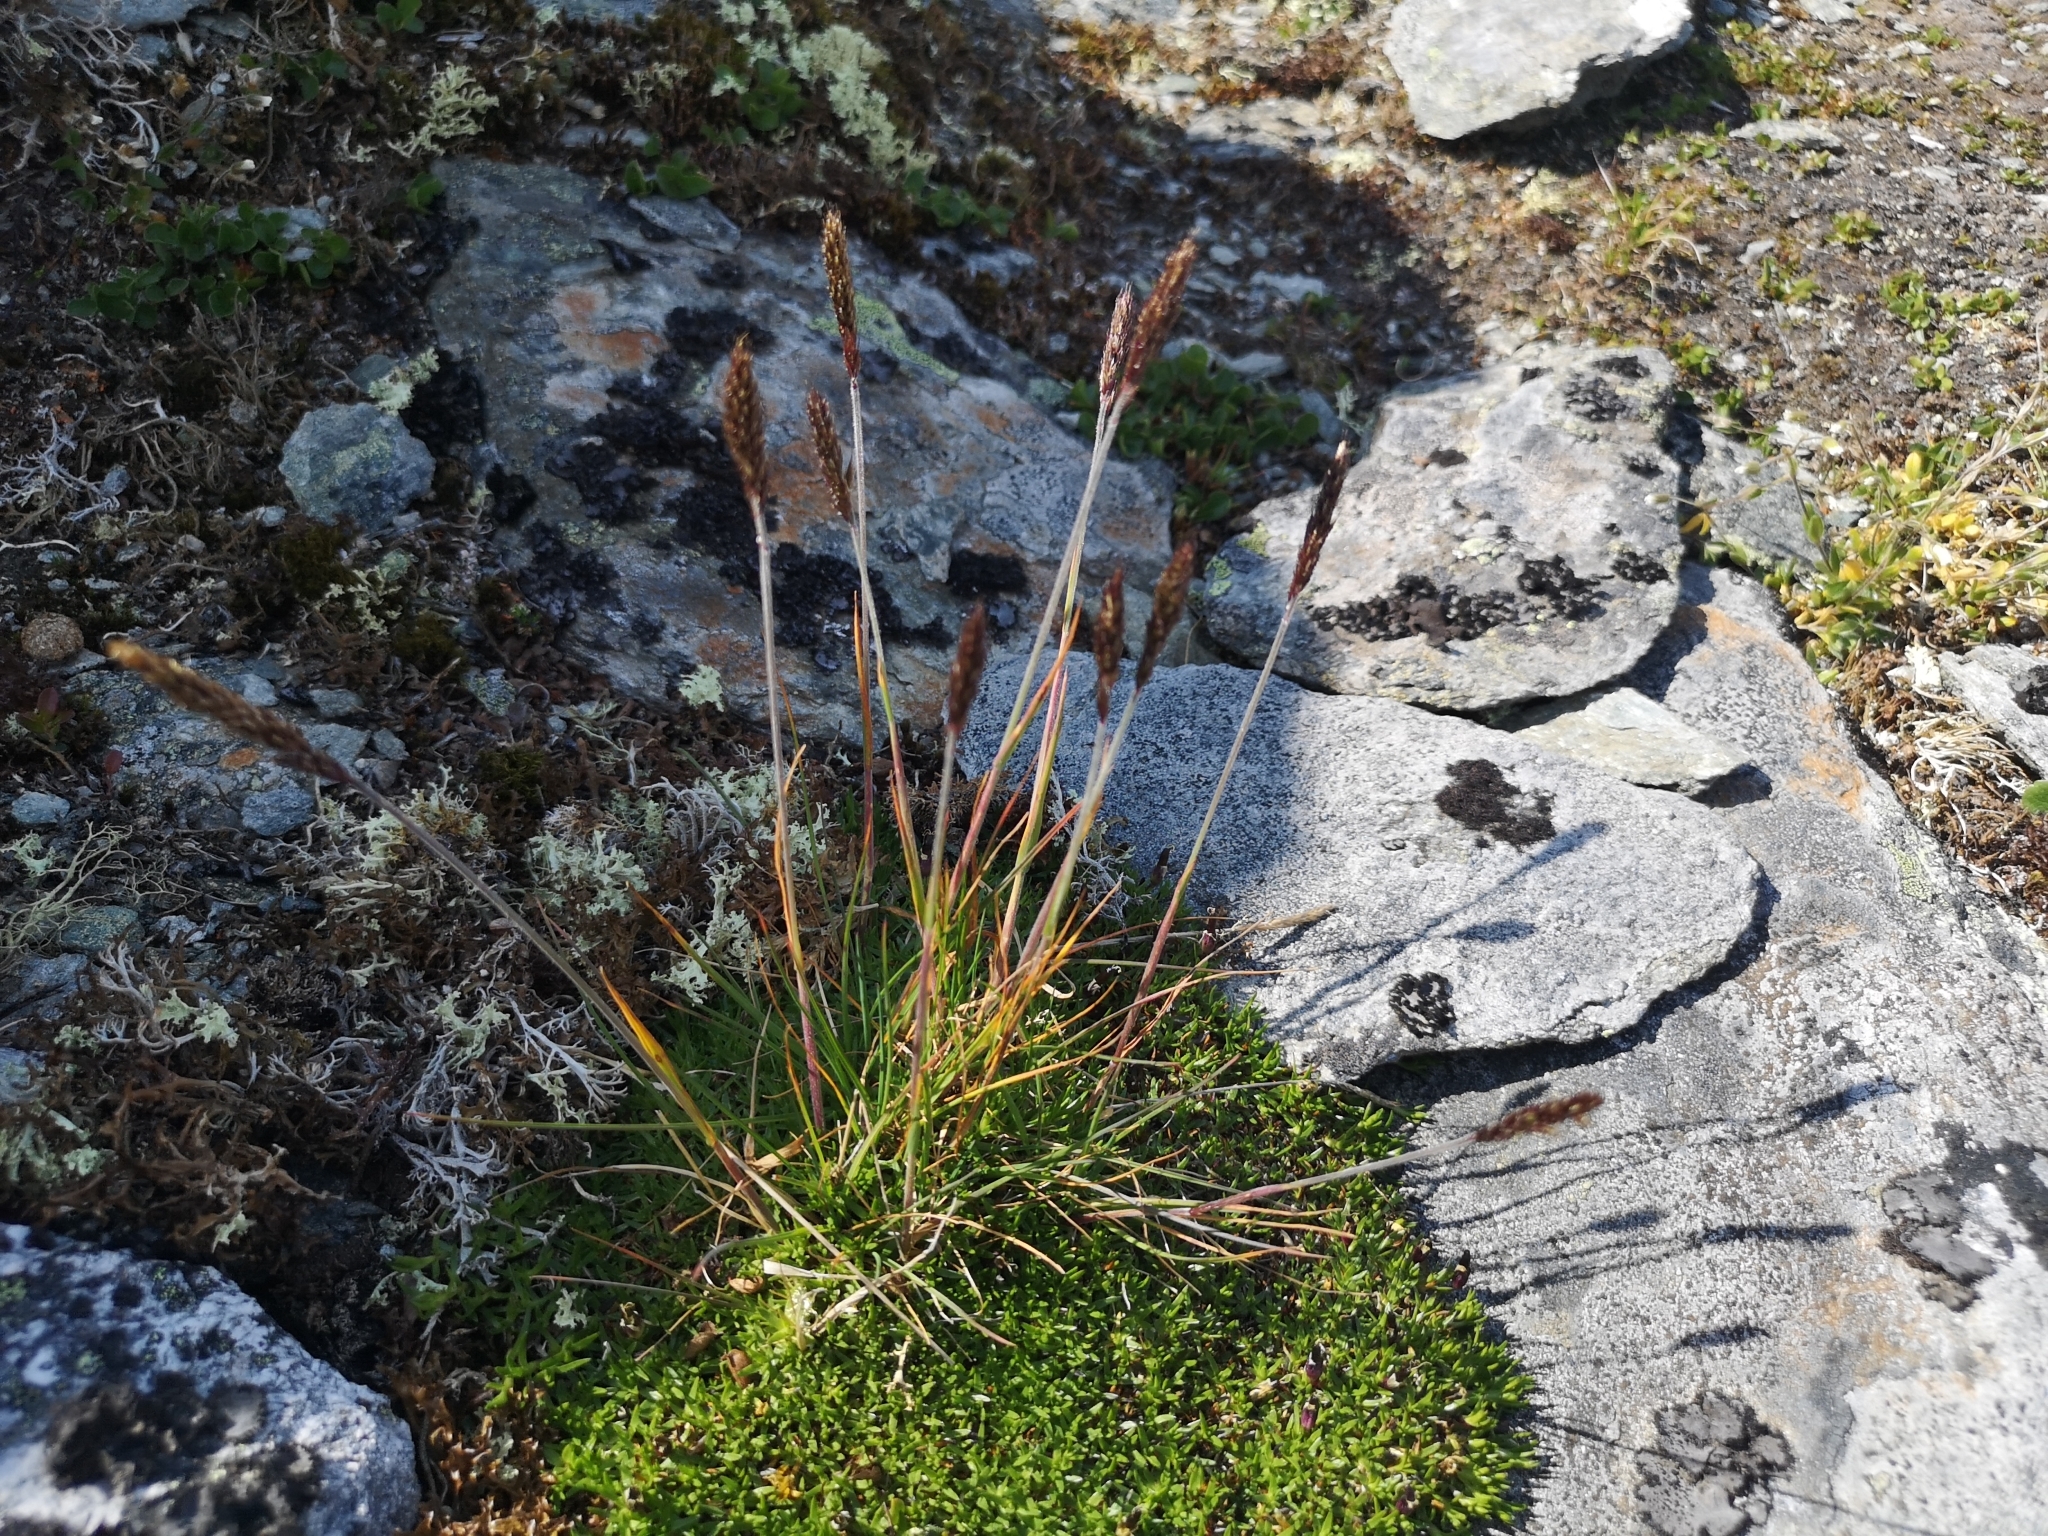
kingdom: Plantae
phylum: Tracheophyta
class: Liliopsida
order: Poales
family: Poaceae
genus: Koeleria
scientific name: Koeleria spicata
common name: Mountain trisetum
